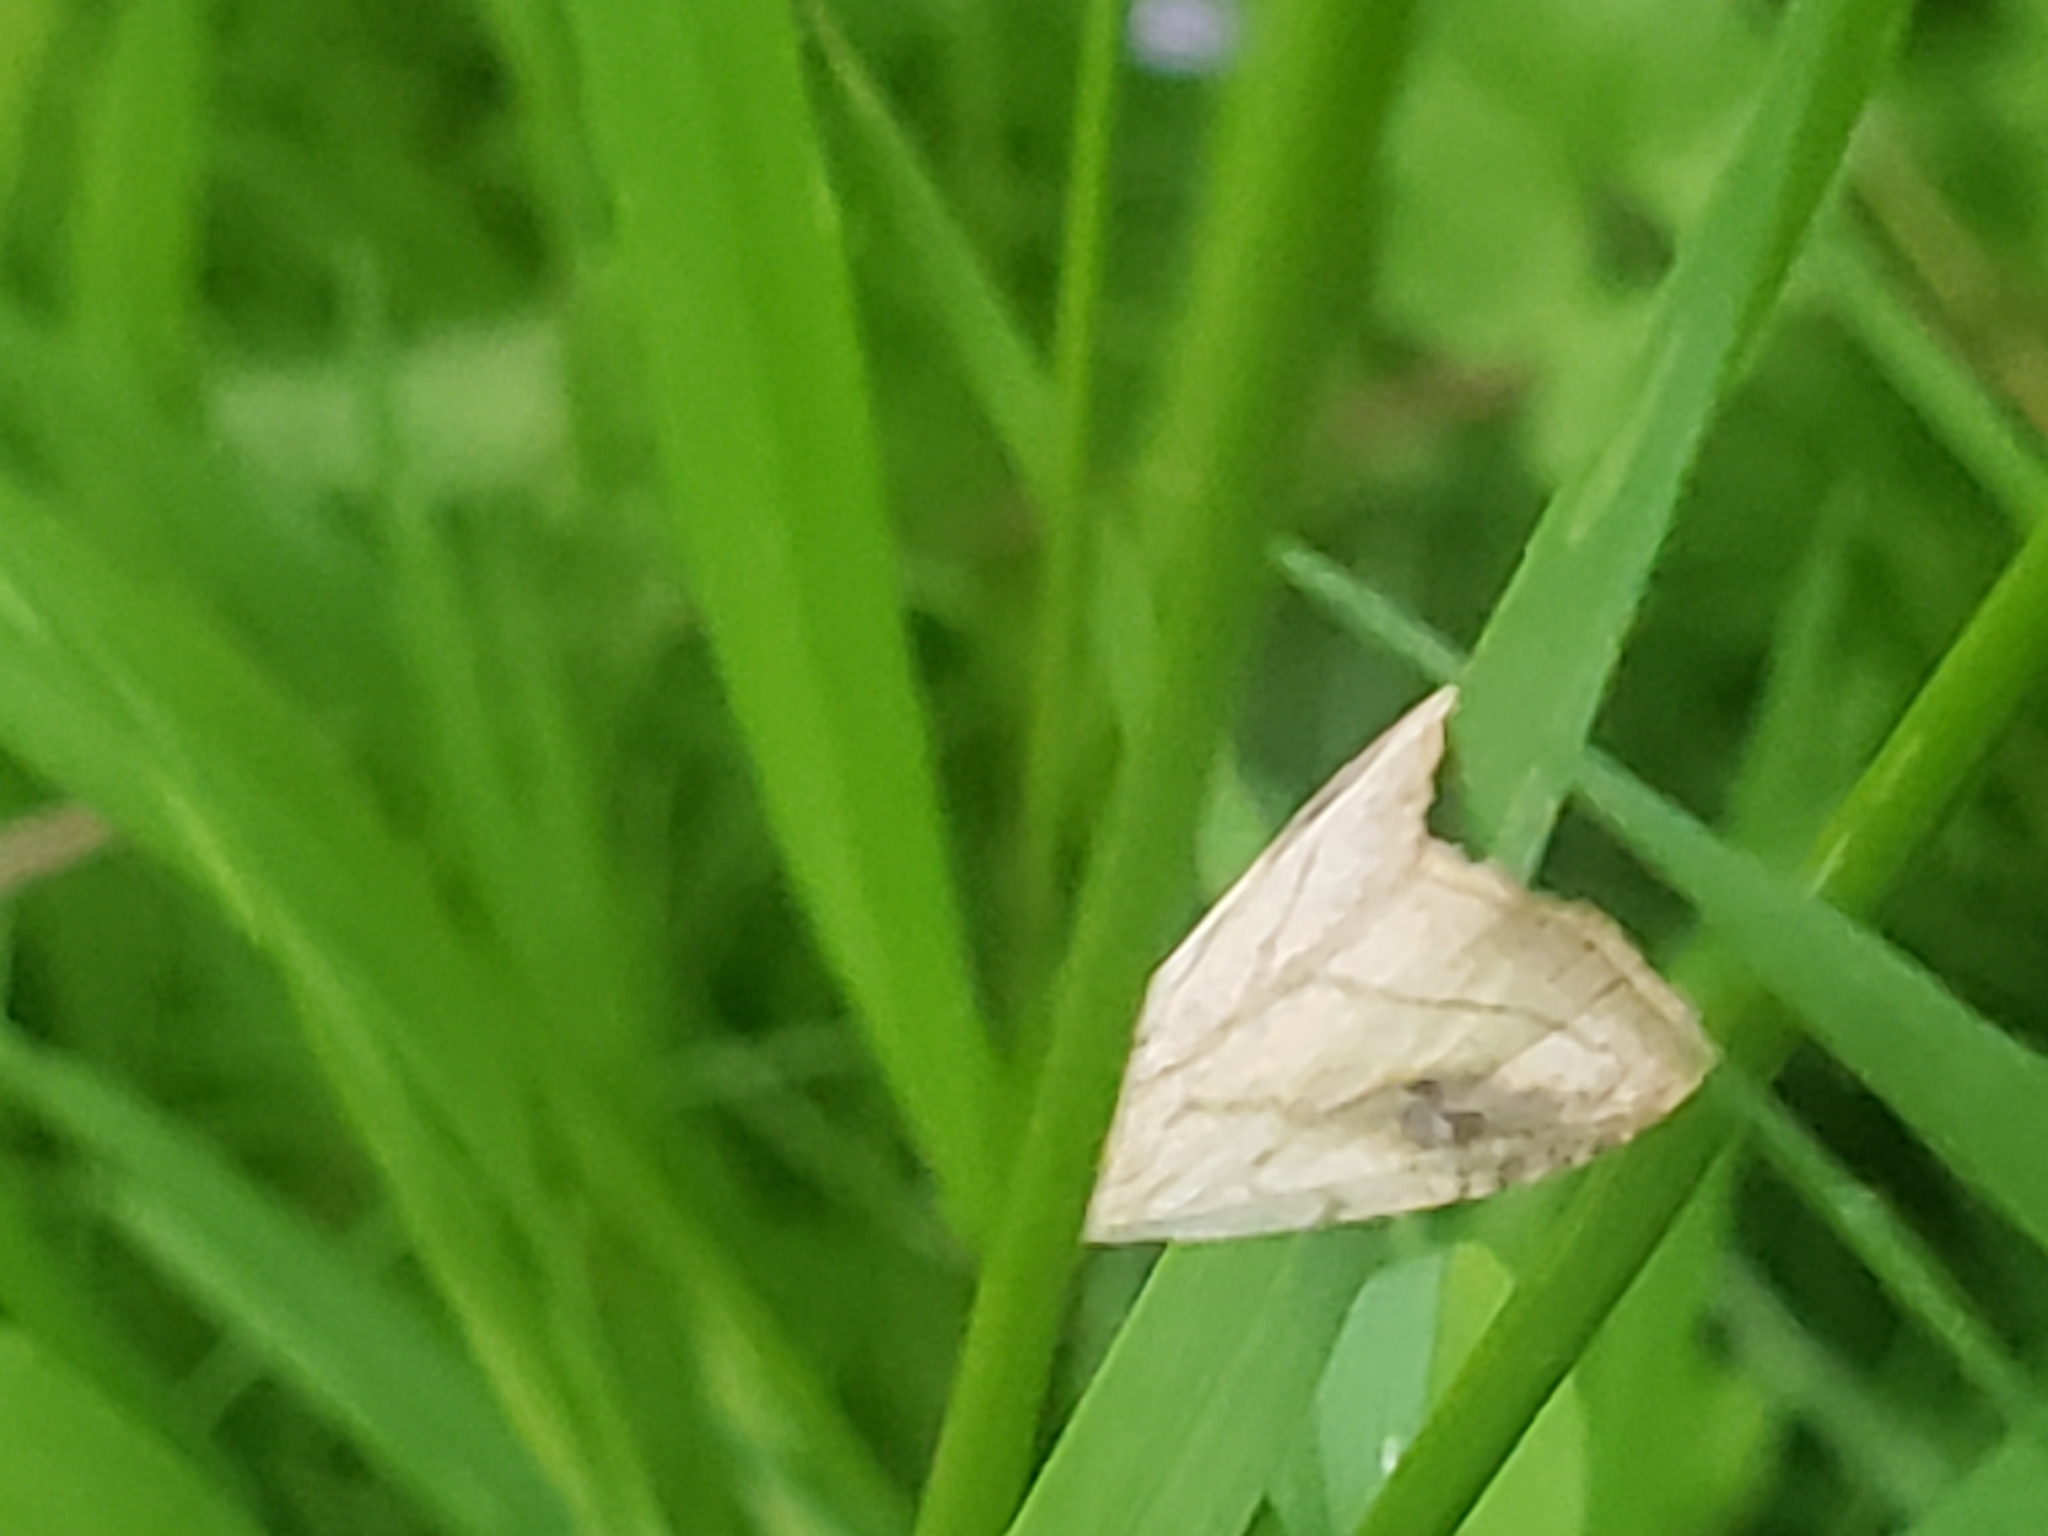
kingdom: Animalia
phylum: Arthropoda
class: Insecta
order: Lepidoptera
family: Erebidae
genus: Rivula
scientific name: Rivula propinqualis
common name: Spotted grass moth
